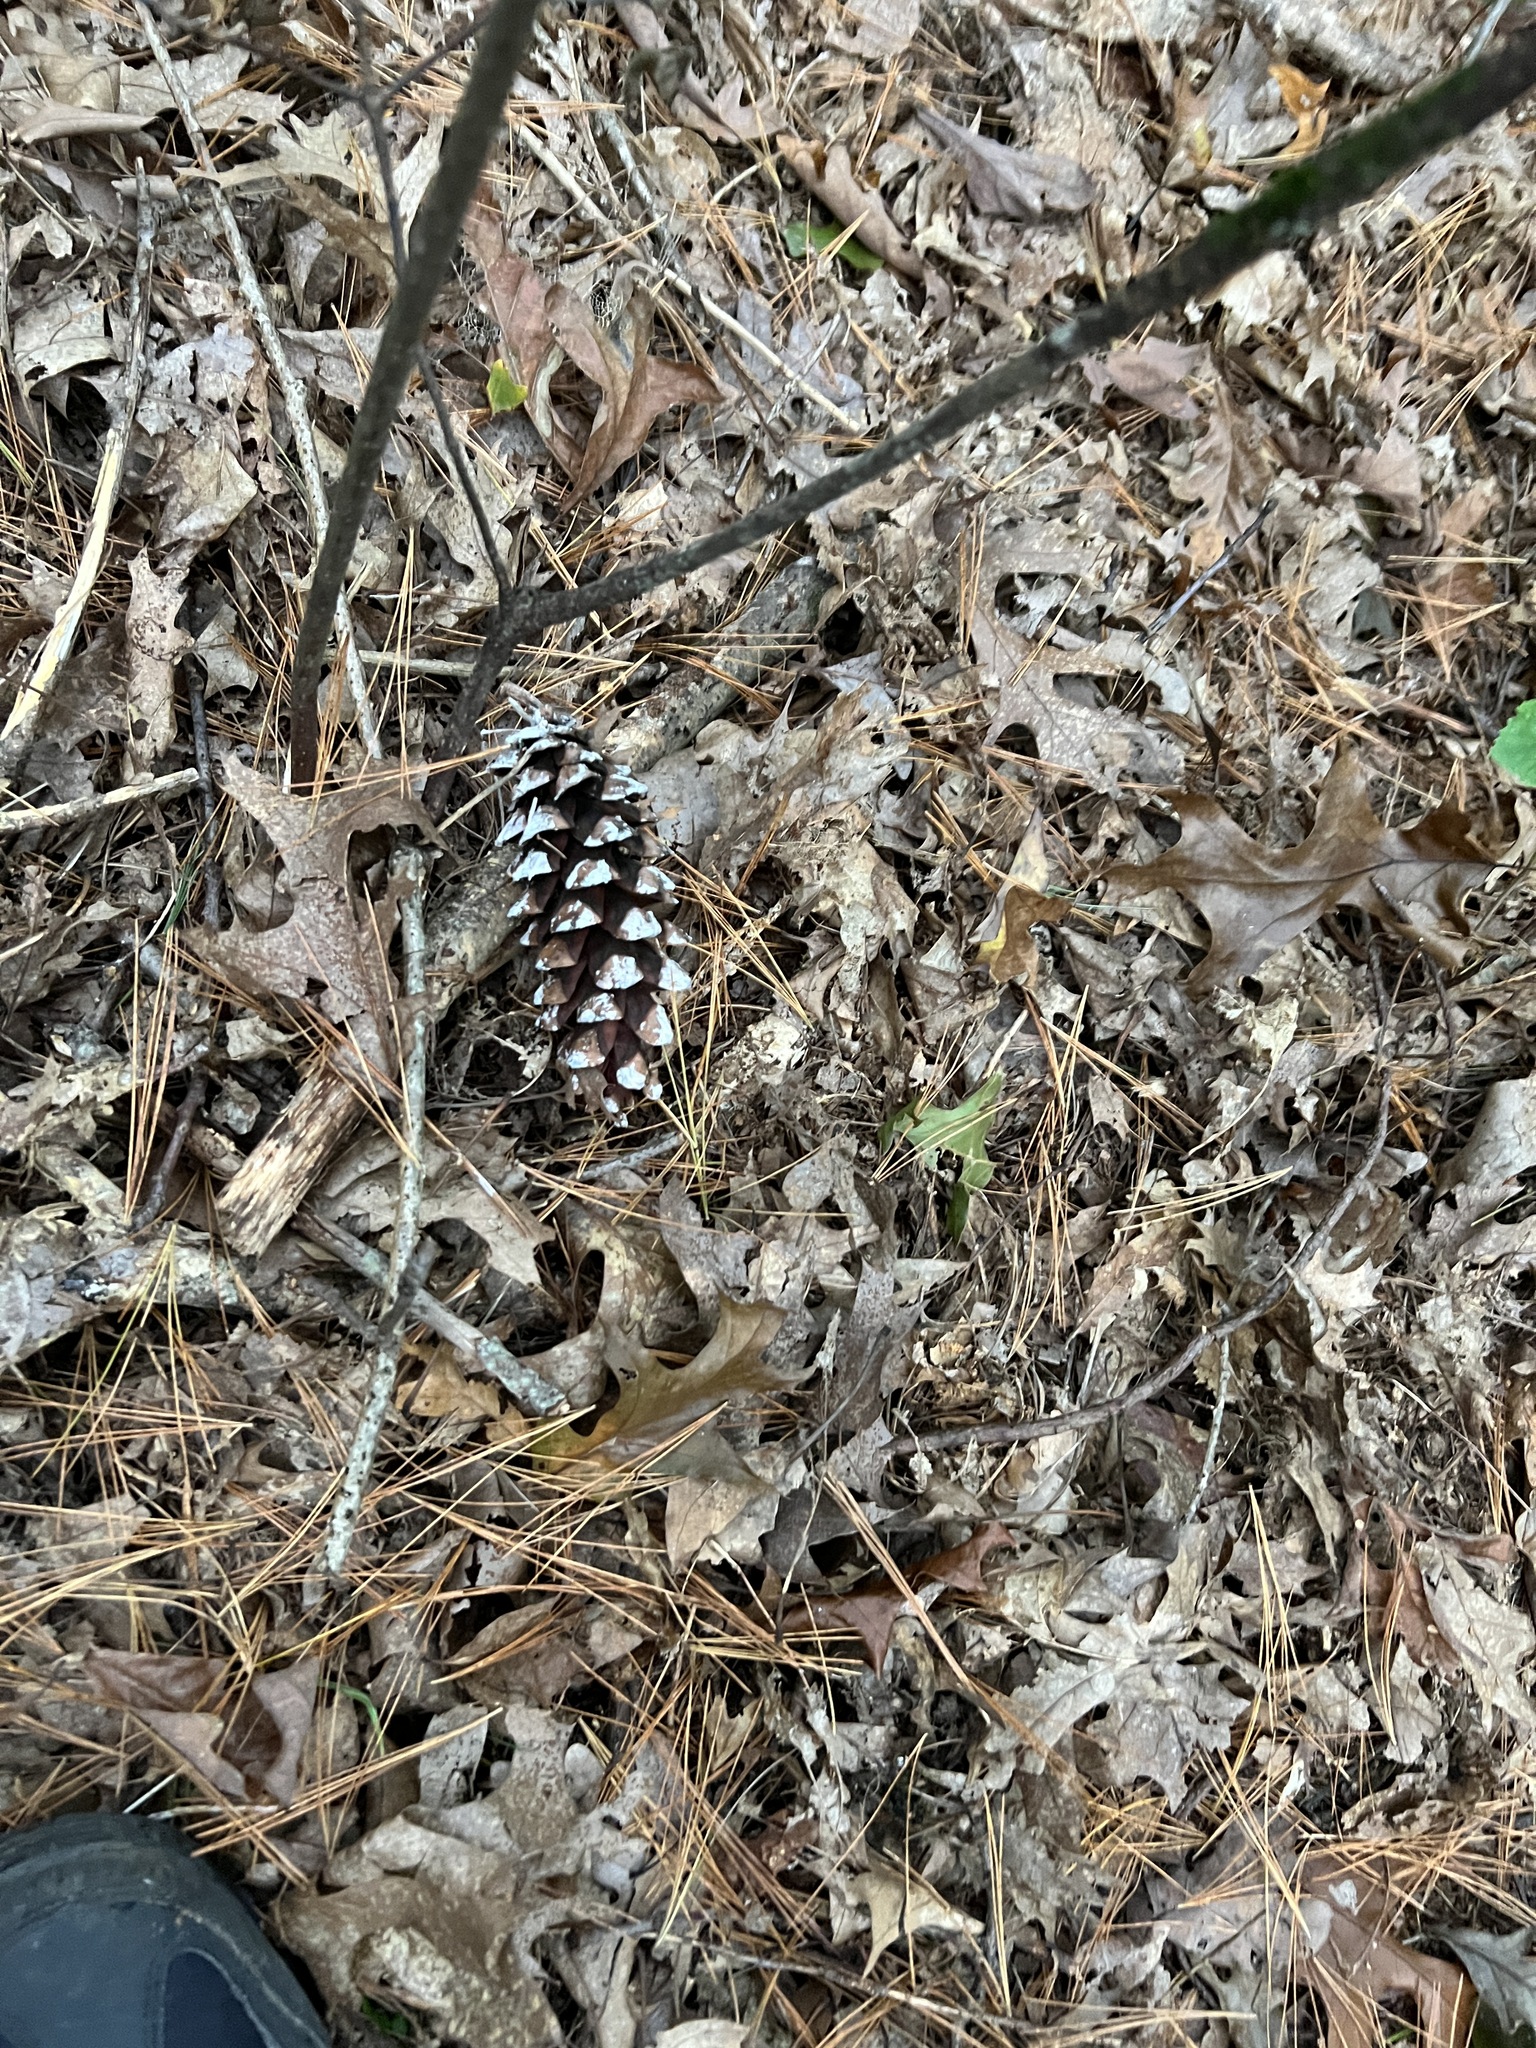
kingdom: Plantae
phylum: Tracheophyta
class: Pinopsida
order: Pinales
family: Pinaceae
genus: Pinus
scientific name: Pinus strobus
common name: Weymouth pine
